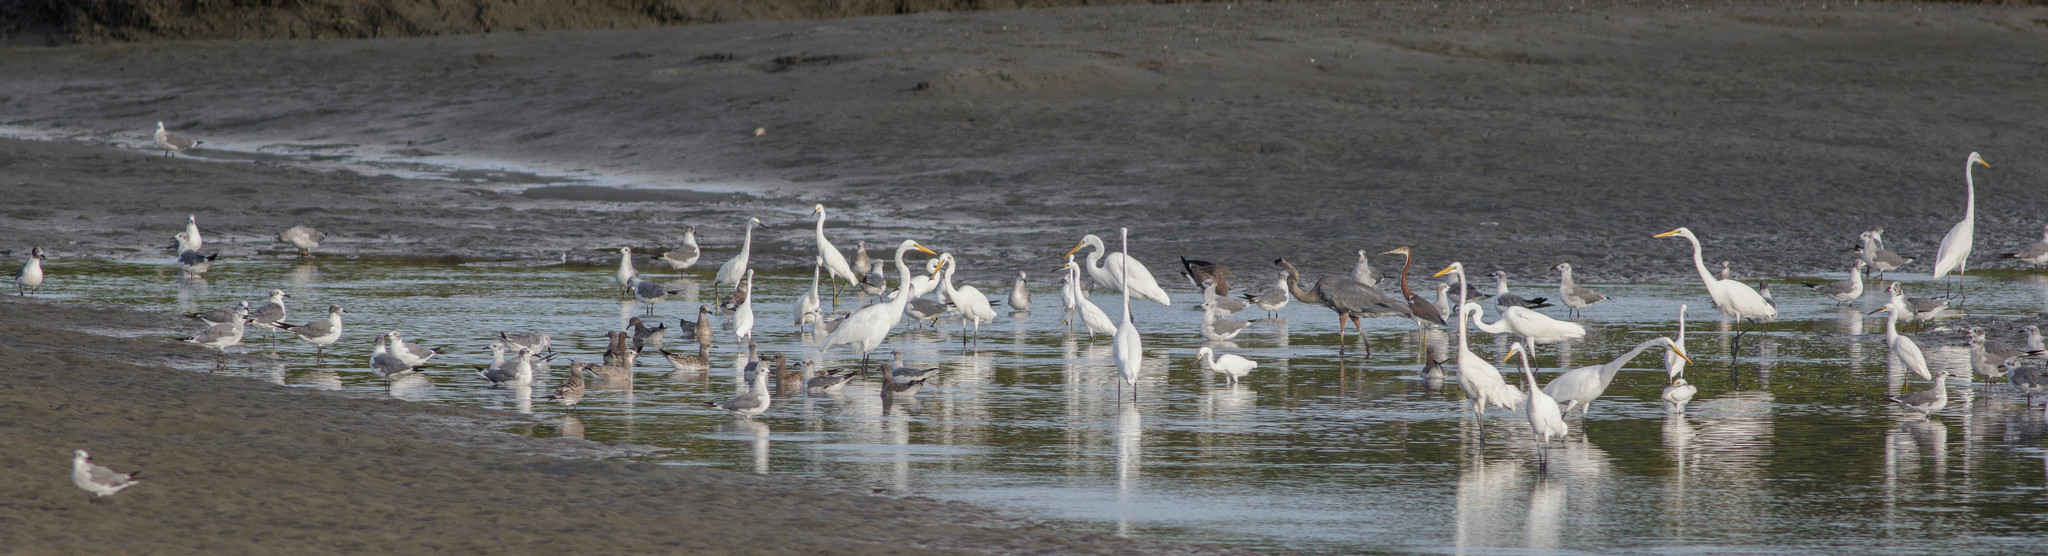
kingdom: Animalia
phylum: Chordata
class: Aves
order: Pelecaniformes
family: Ardeidae
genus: Ardea
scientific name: Ardea alba
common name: Great egret
